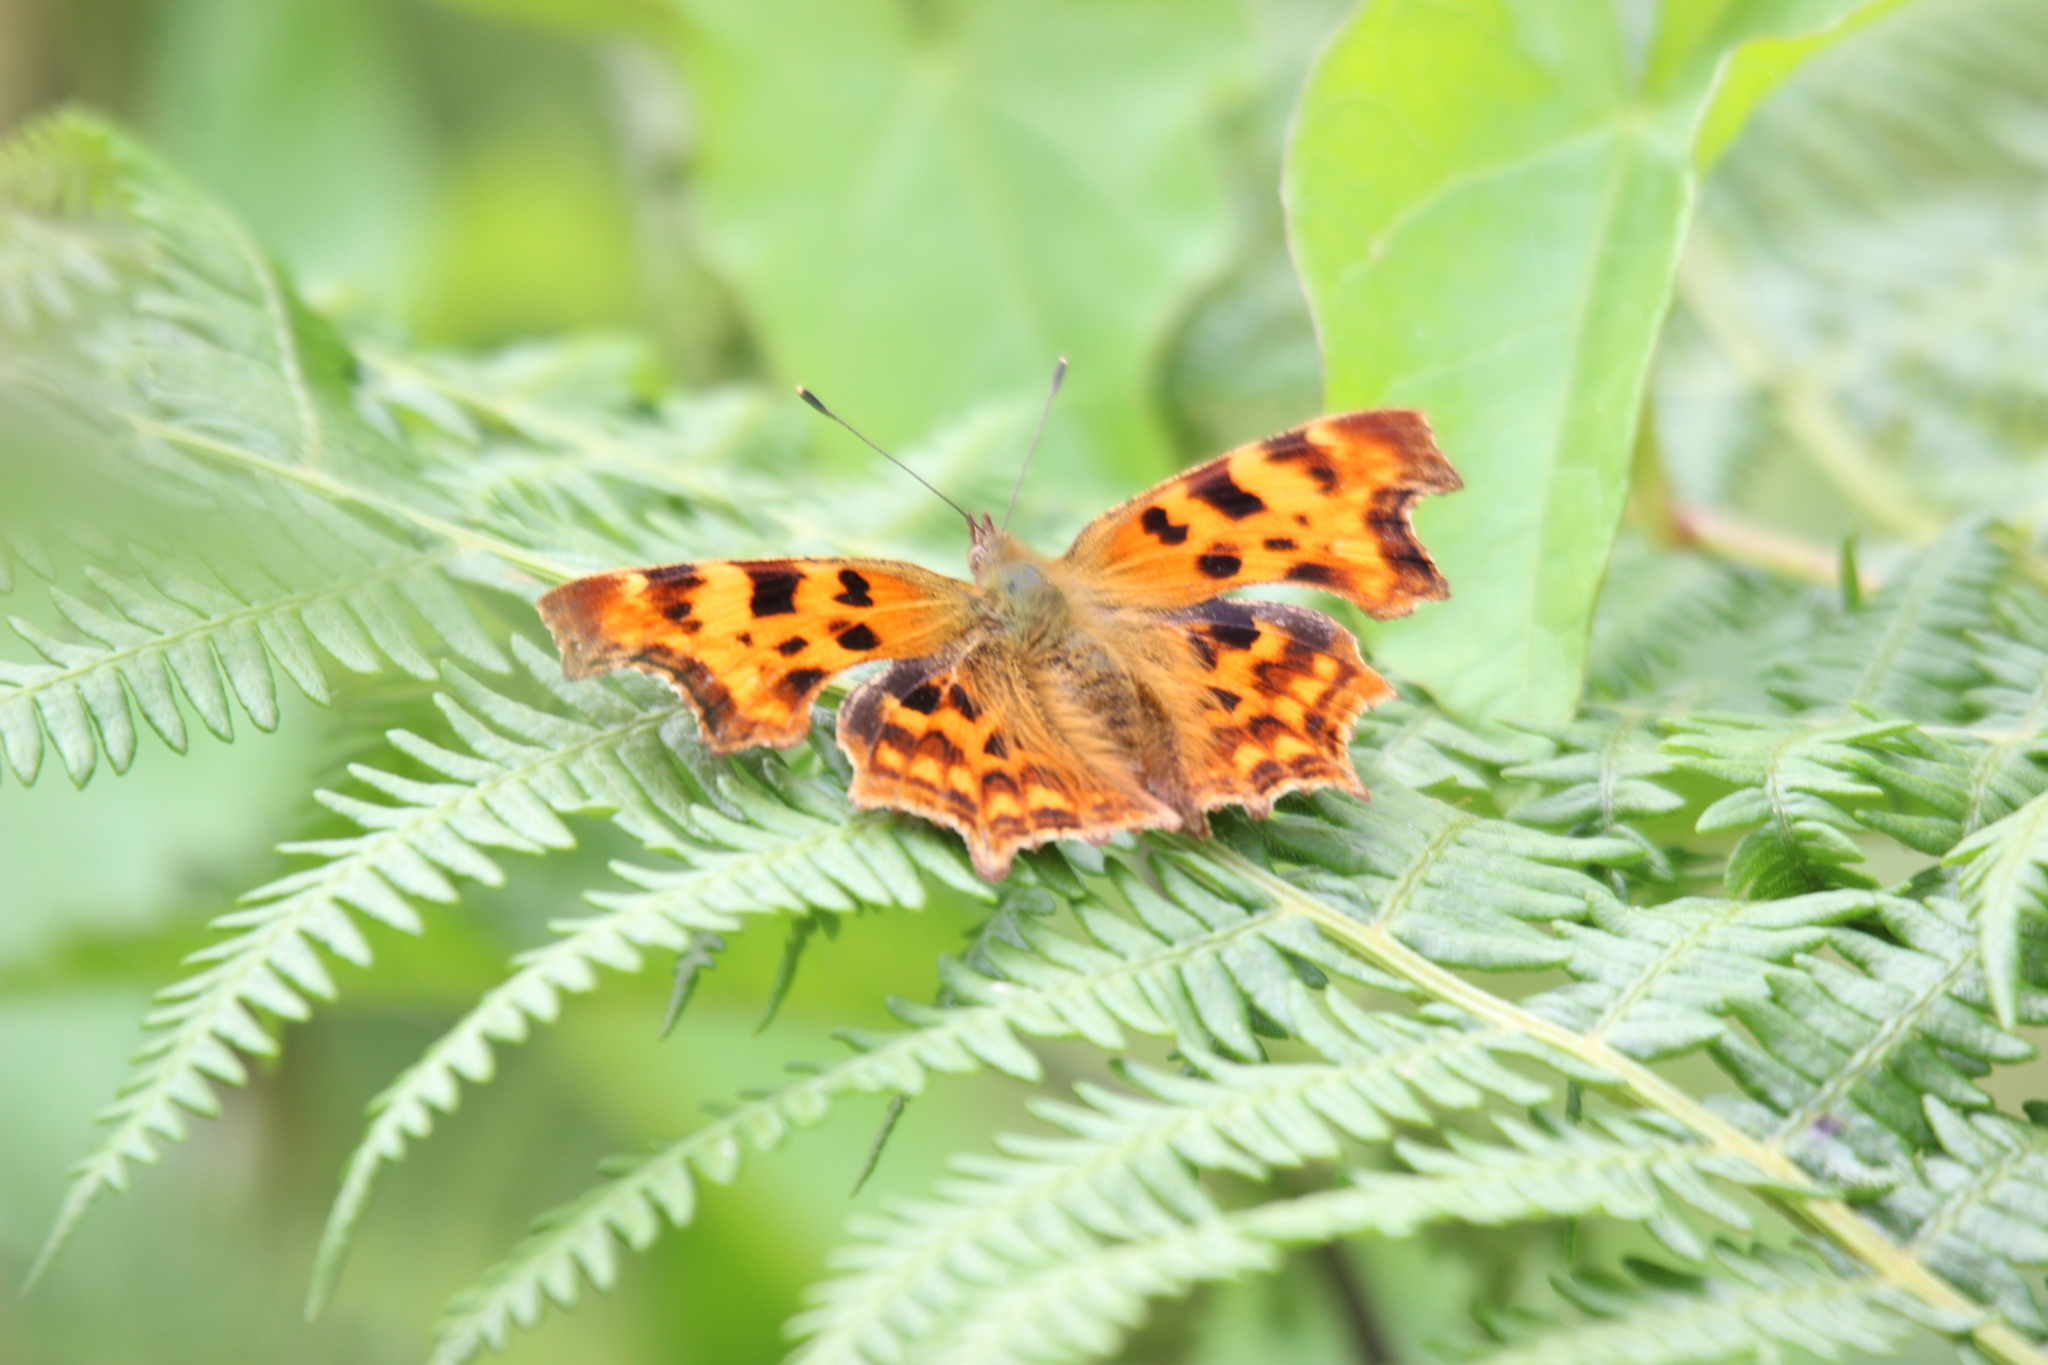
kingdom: Animalia
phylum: Arthropoda
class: Insecta
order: Lepidoptera
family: Nymphalidae
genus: Polygonia
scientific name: Polygonia c-album
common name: Comma
